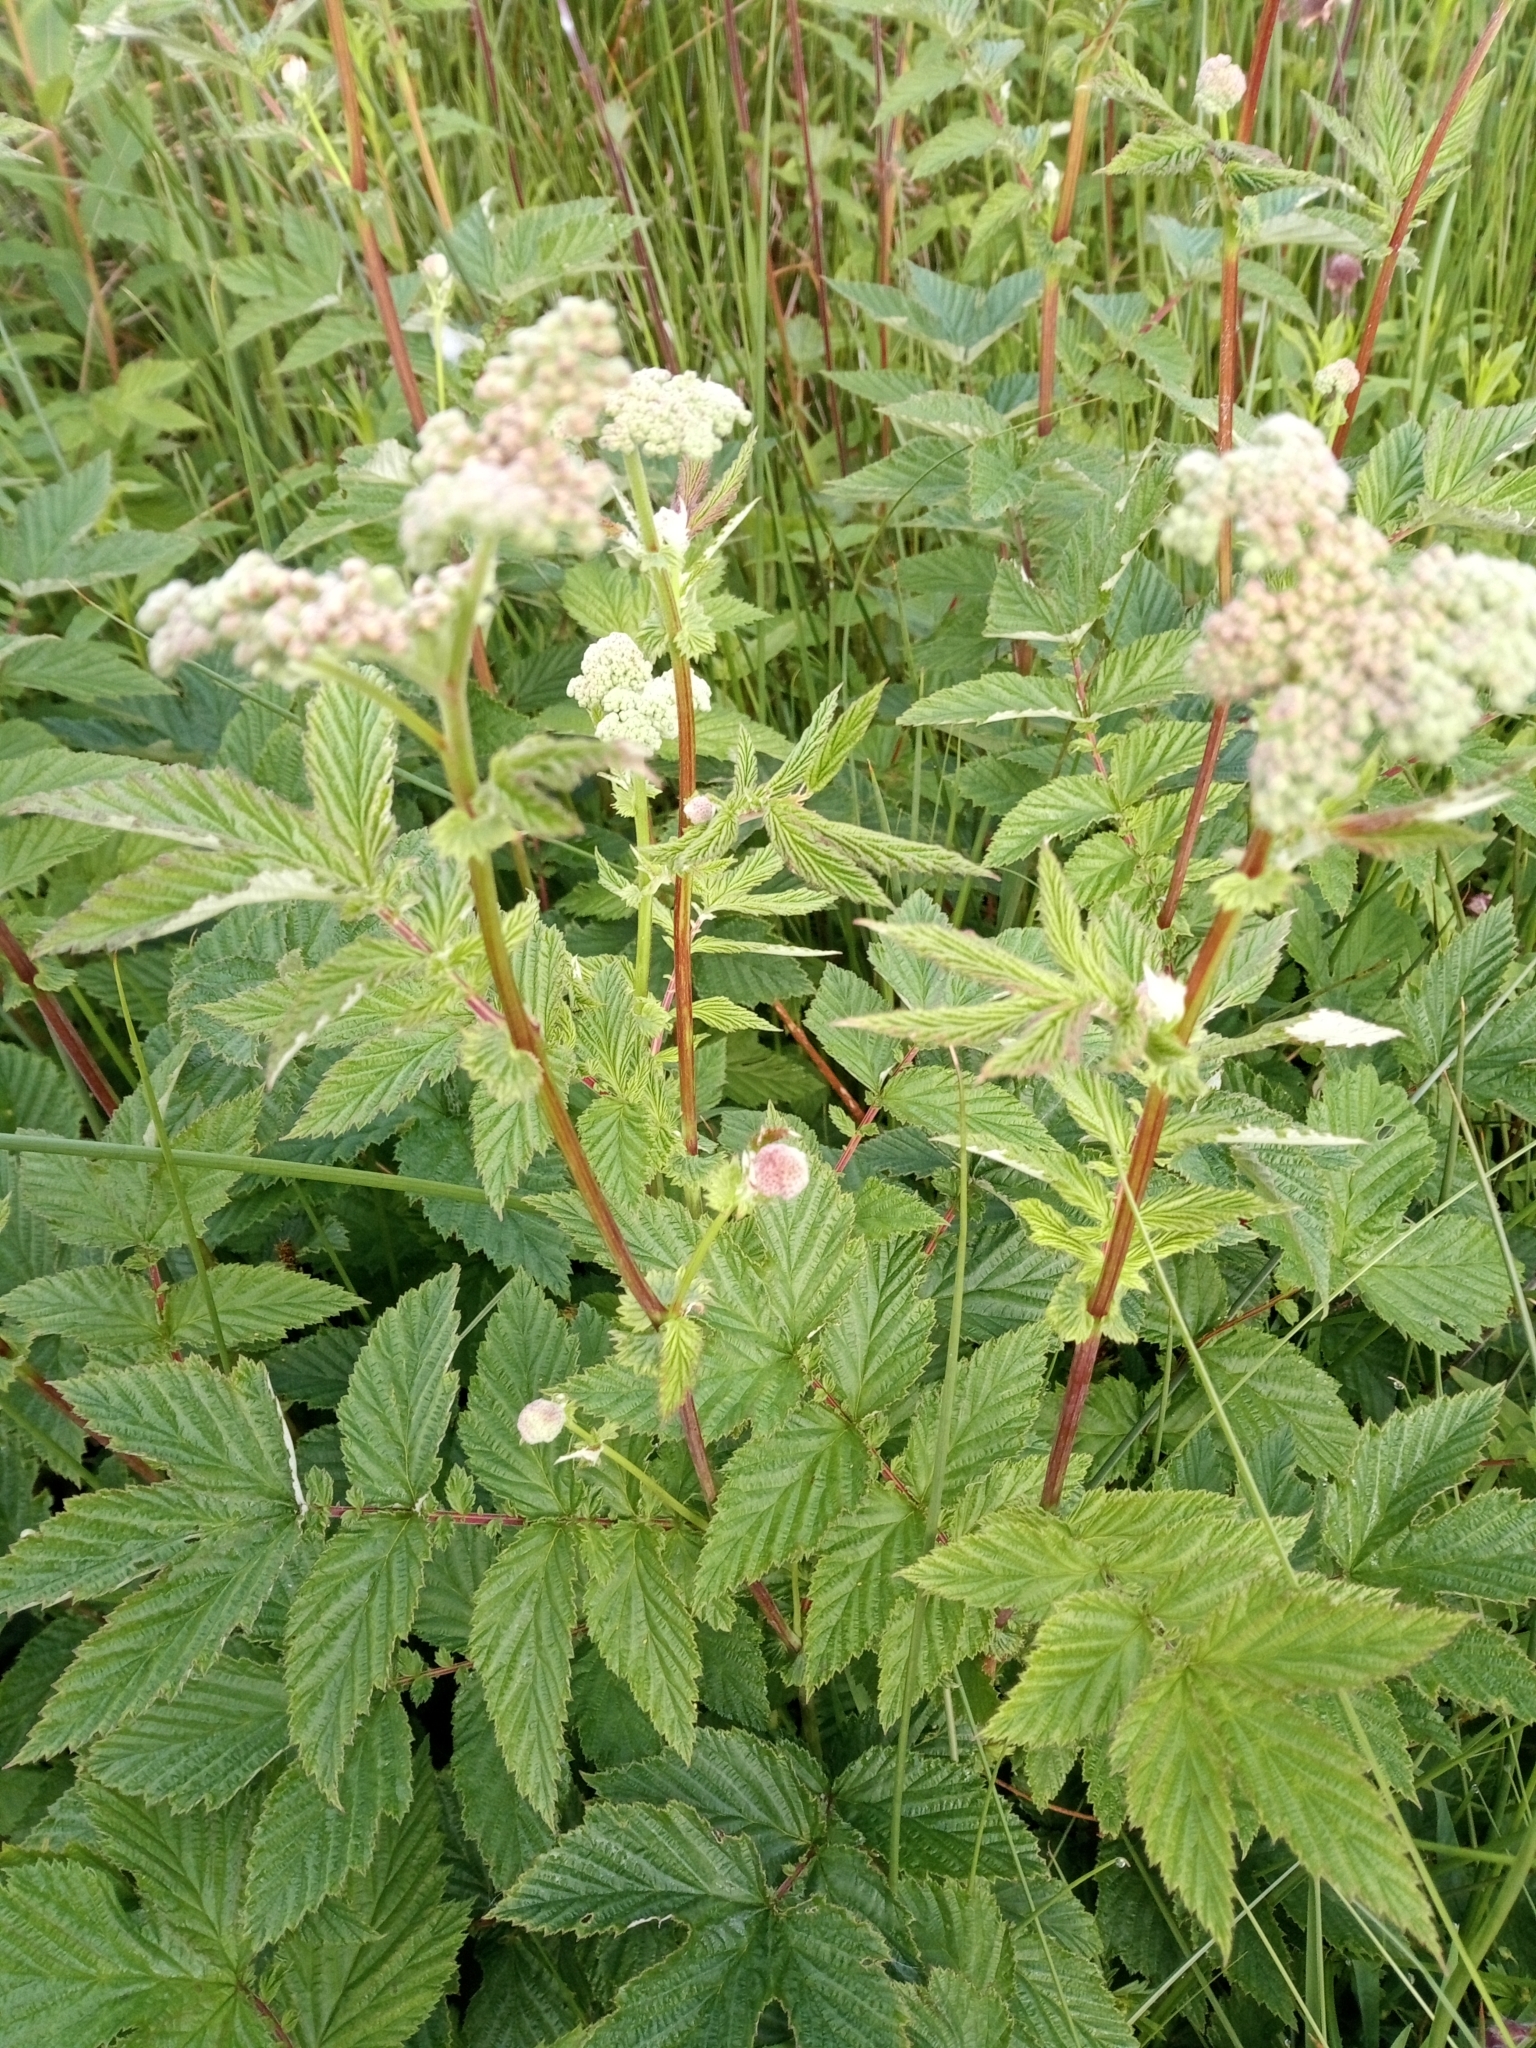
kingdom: Plantae
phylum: Tracheophyta
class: Magnoliopsida
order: Rosales
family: Rosaceae
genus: Filipendula
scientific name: Filipendula ulmaria
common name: Meadowsweet
